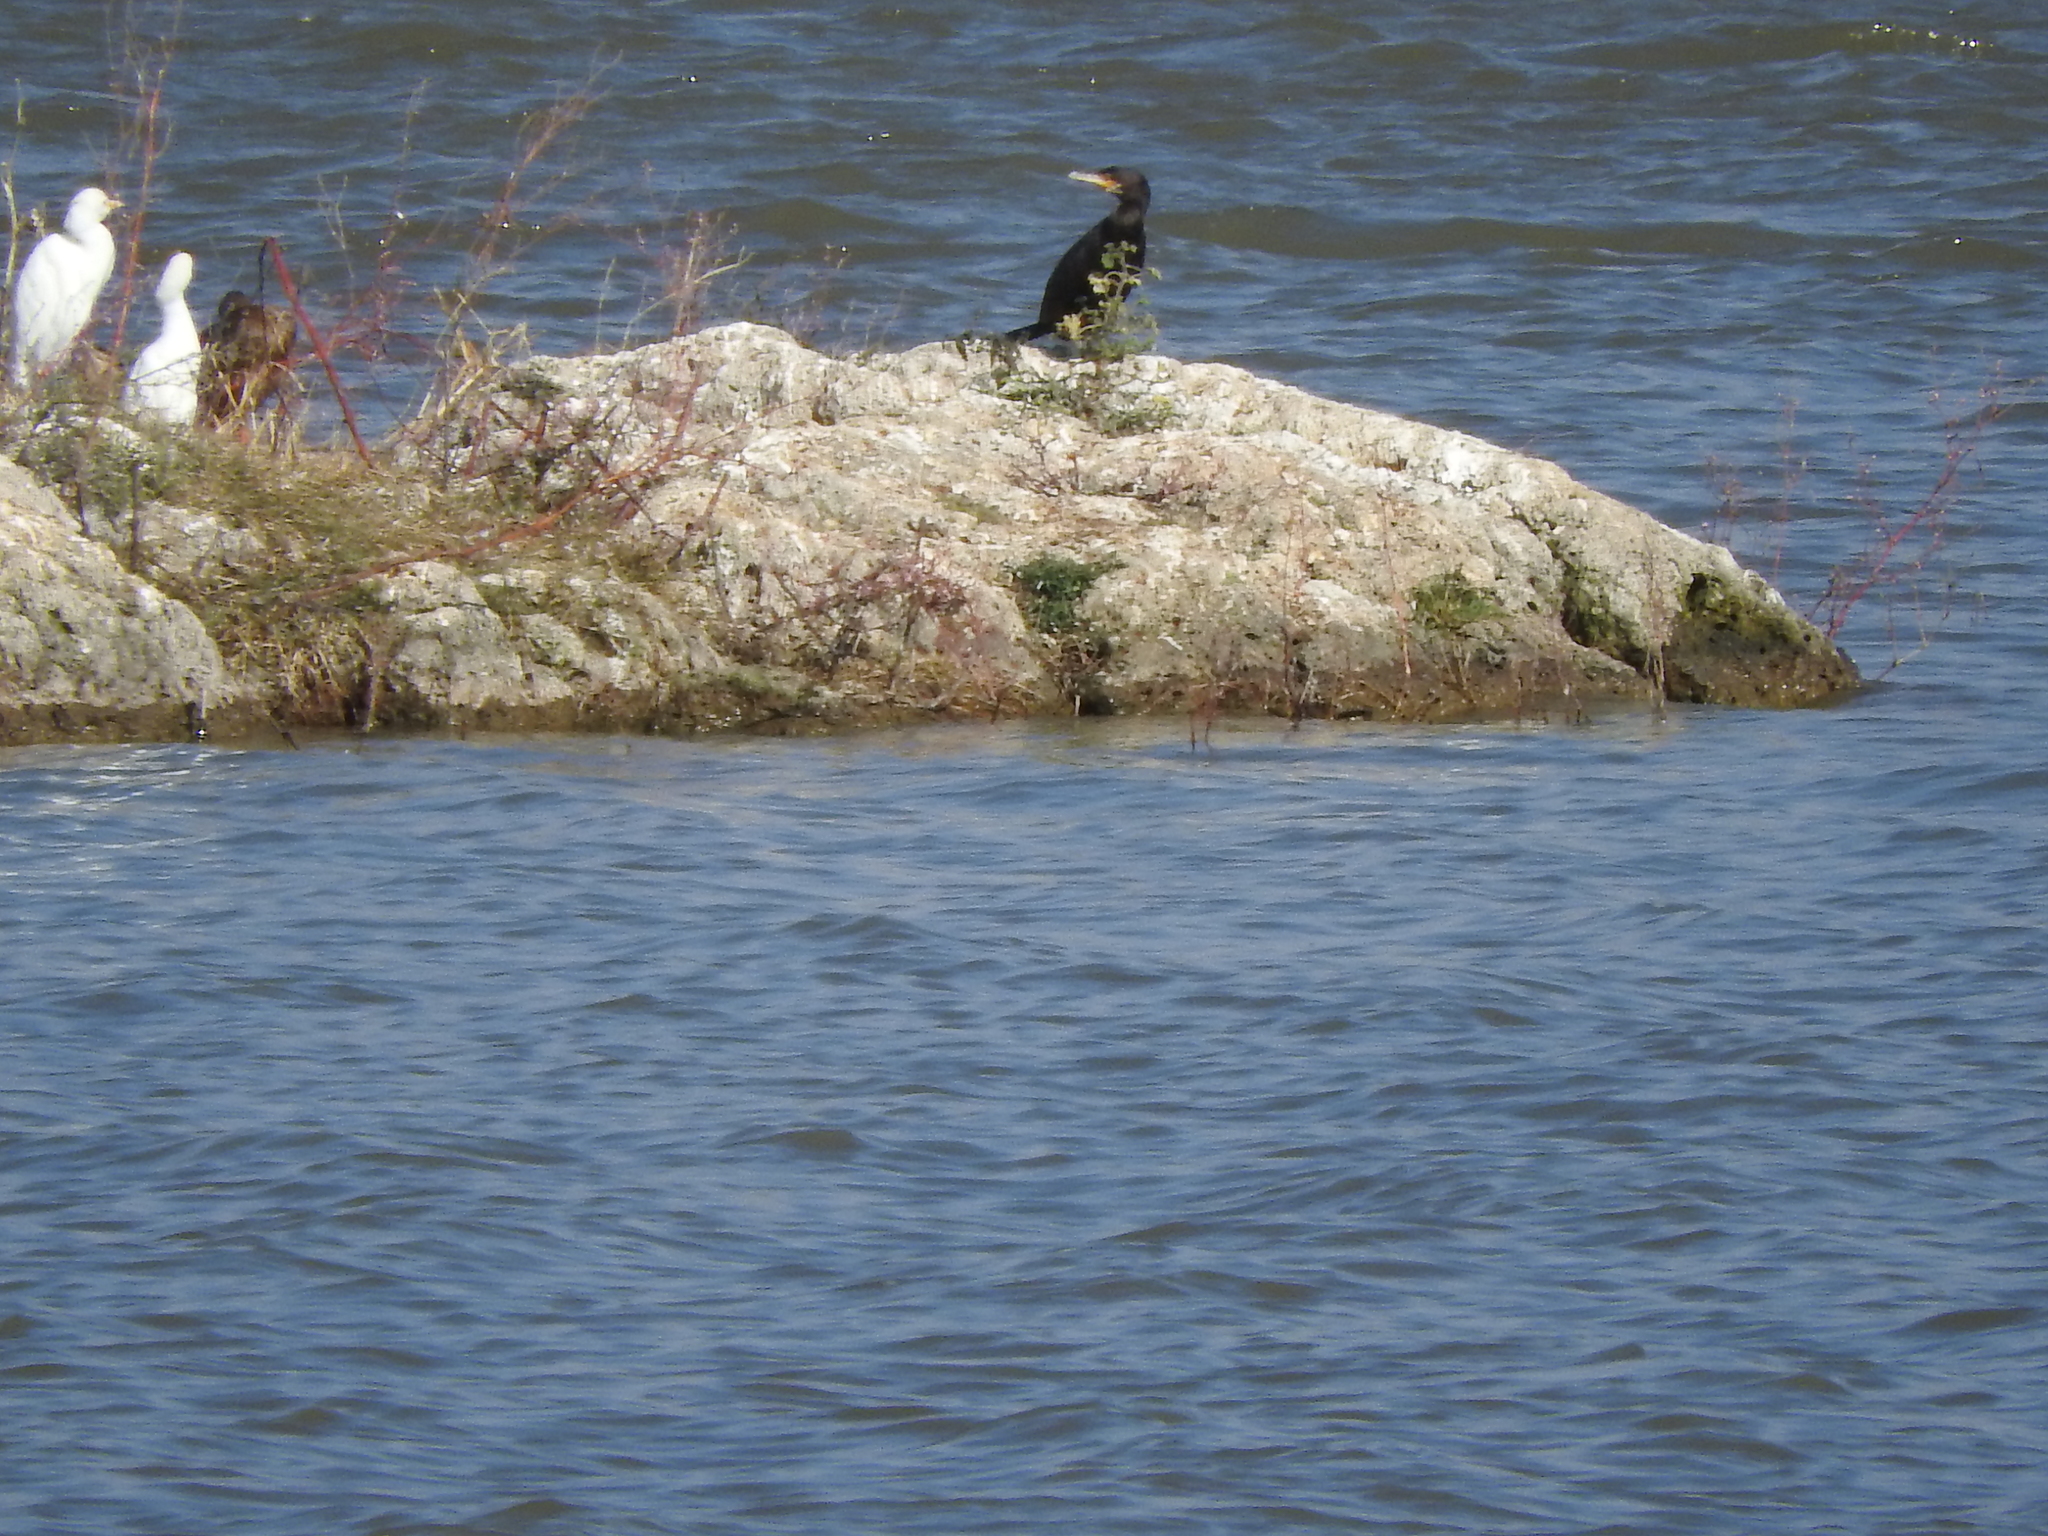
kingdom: Animalia
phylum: Chordata
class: Aves
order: Suliformes
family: Phalacrocoracidae
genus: Phalacrocorax
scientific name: Phalacrocorax brasilianus
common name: Neotropic cormorant
